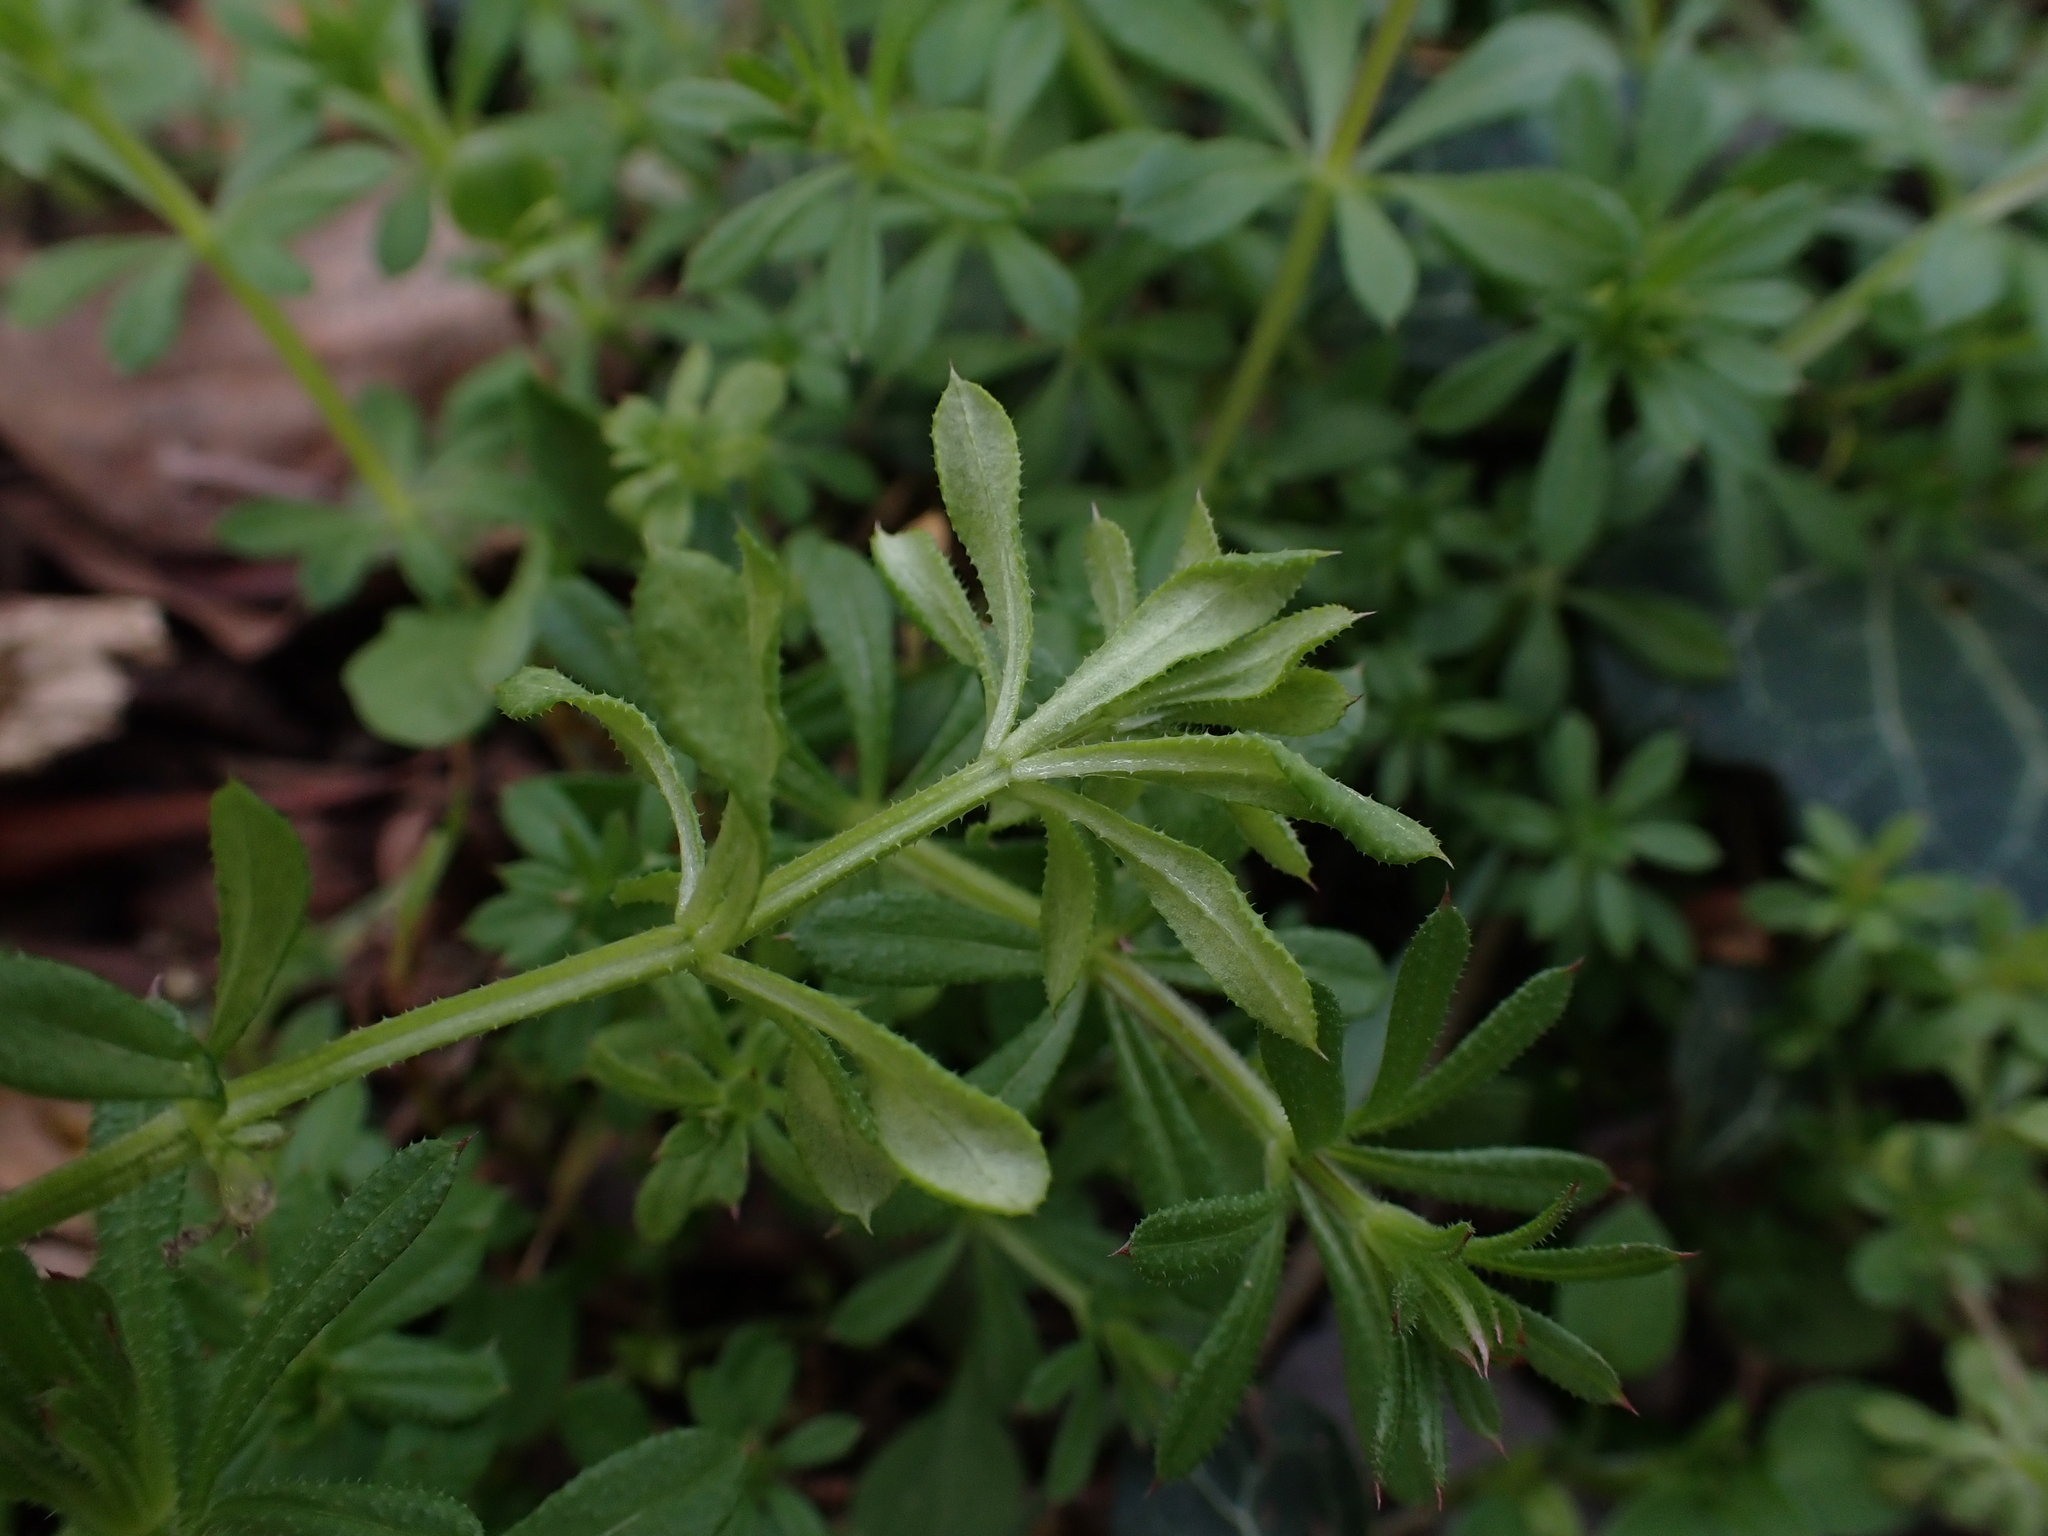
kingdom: Chromista
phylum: Oomycota
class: Peronosporea
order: Peronosporales
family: Peronosporaceae
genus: Peronospora
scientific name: Peronospora aparines
